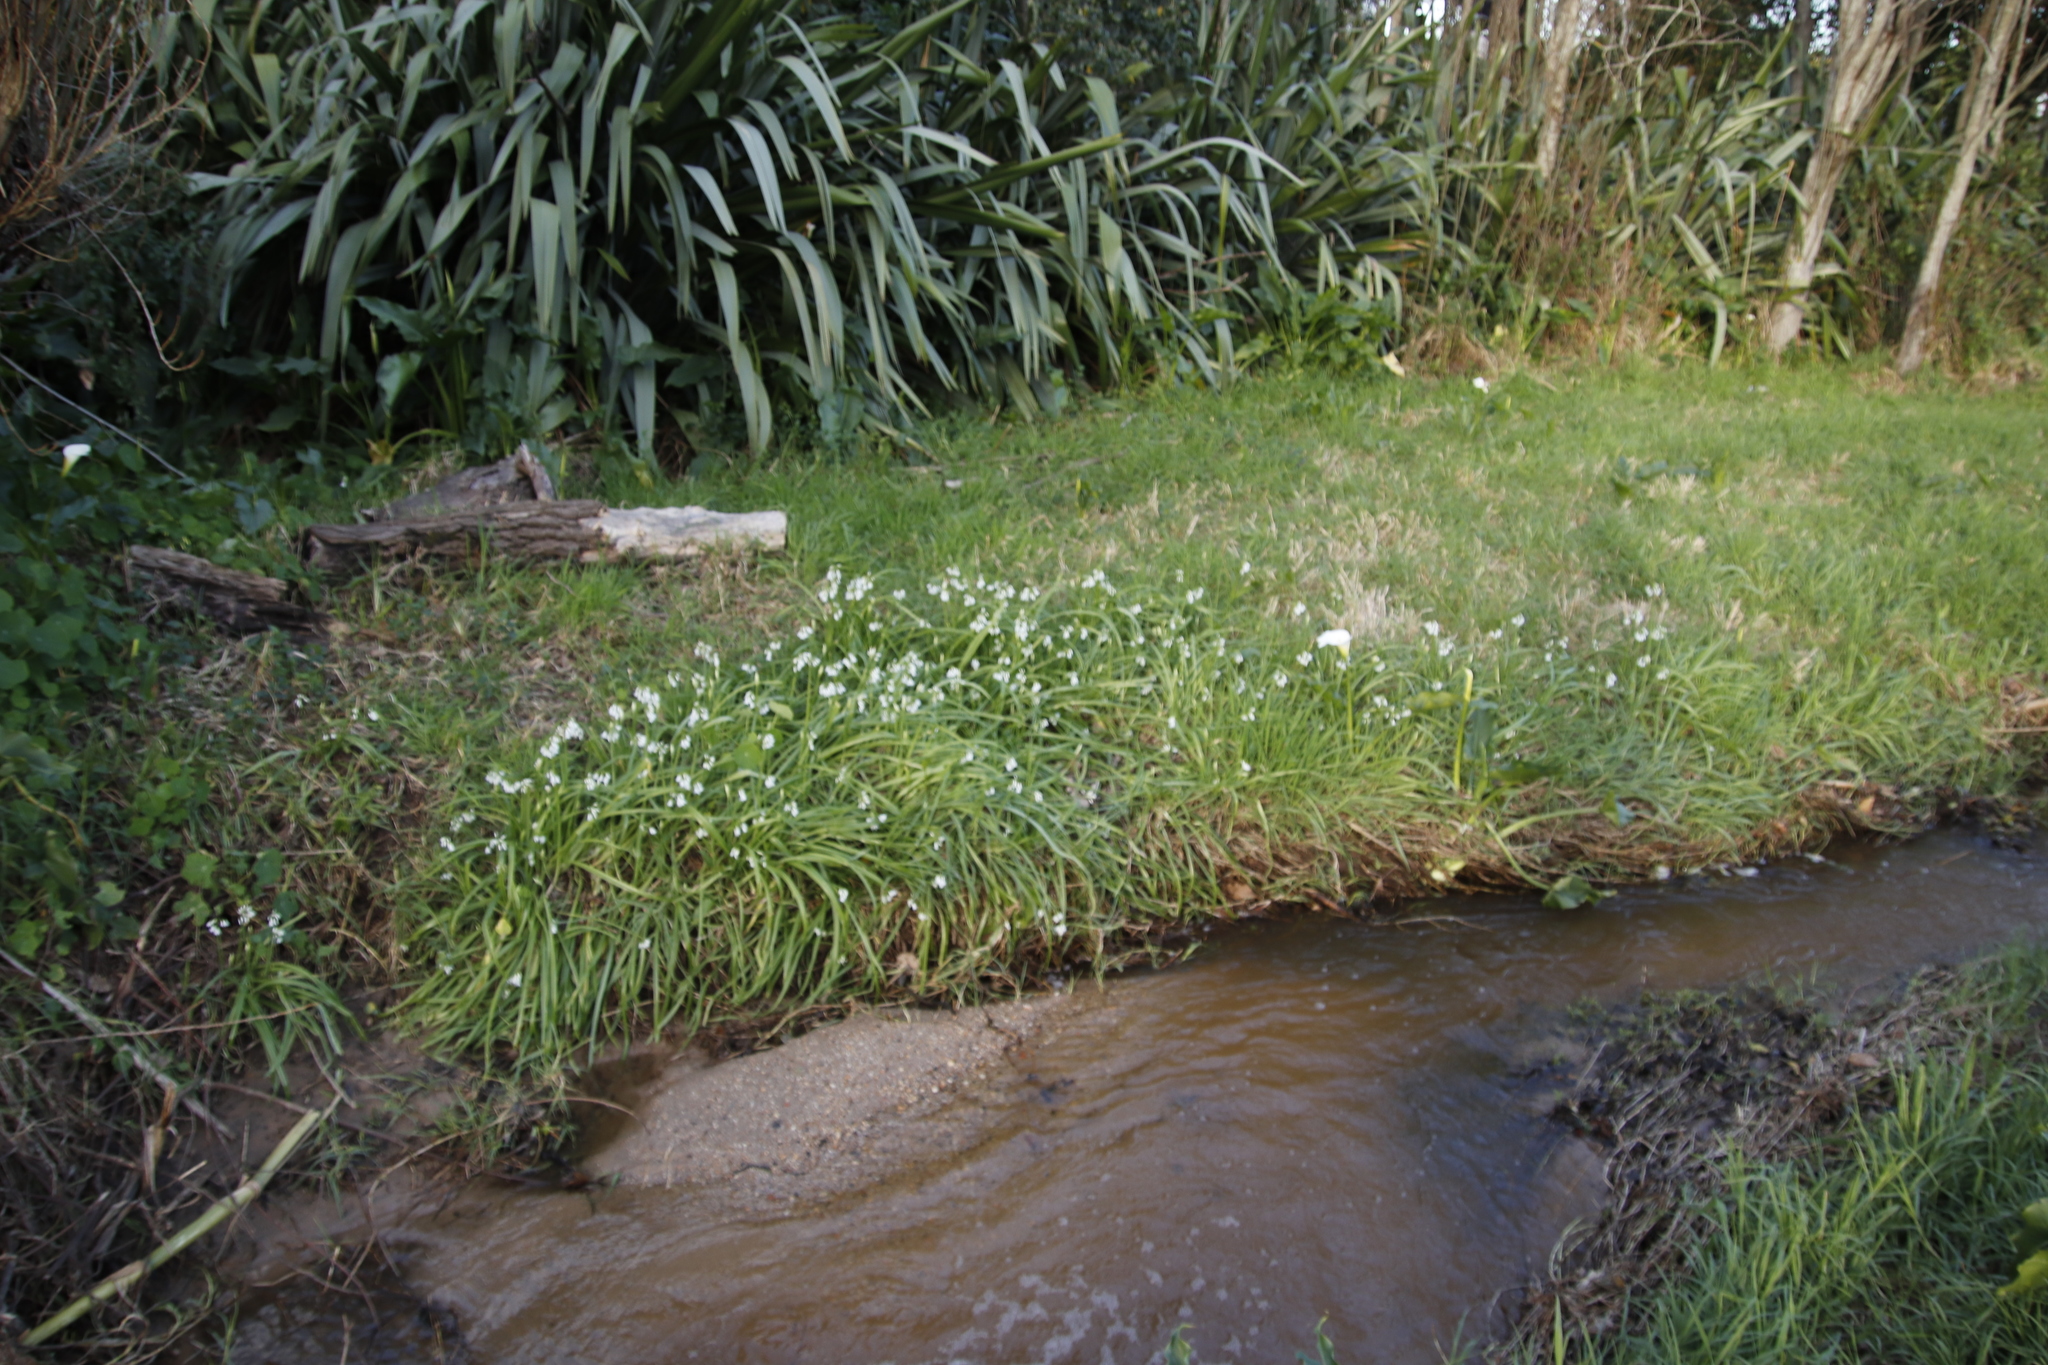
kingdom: Plantae
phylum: Tracheophyta
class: Liliopsida
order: Asparagales
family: Amaryllidaceae
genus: Allium
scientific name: Allium triquetrum
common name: Three-cornered garlic
